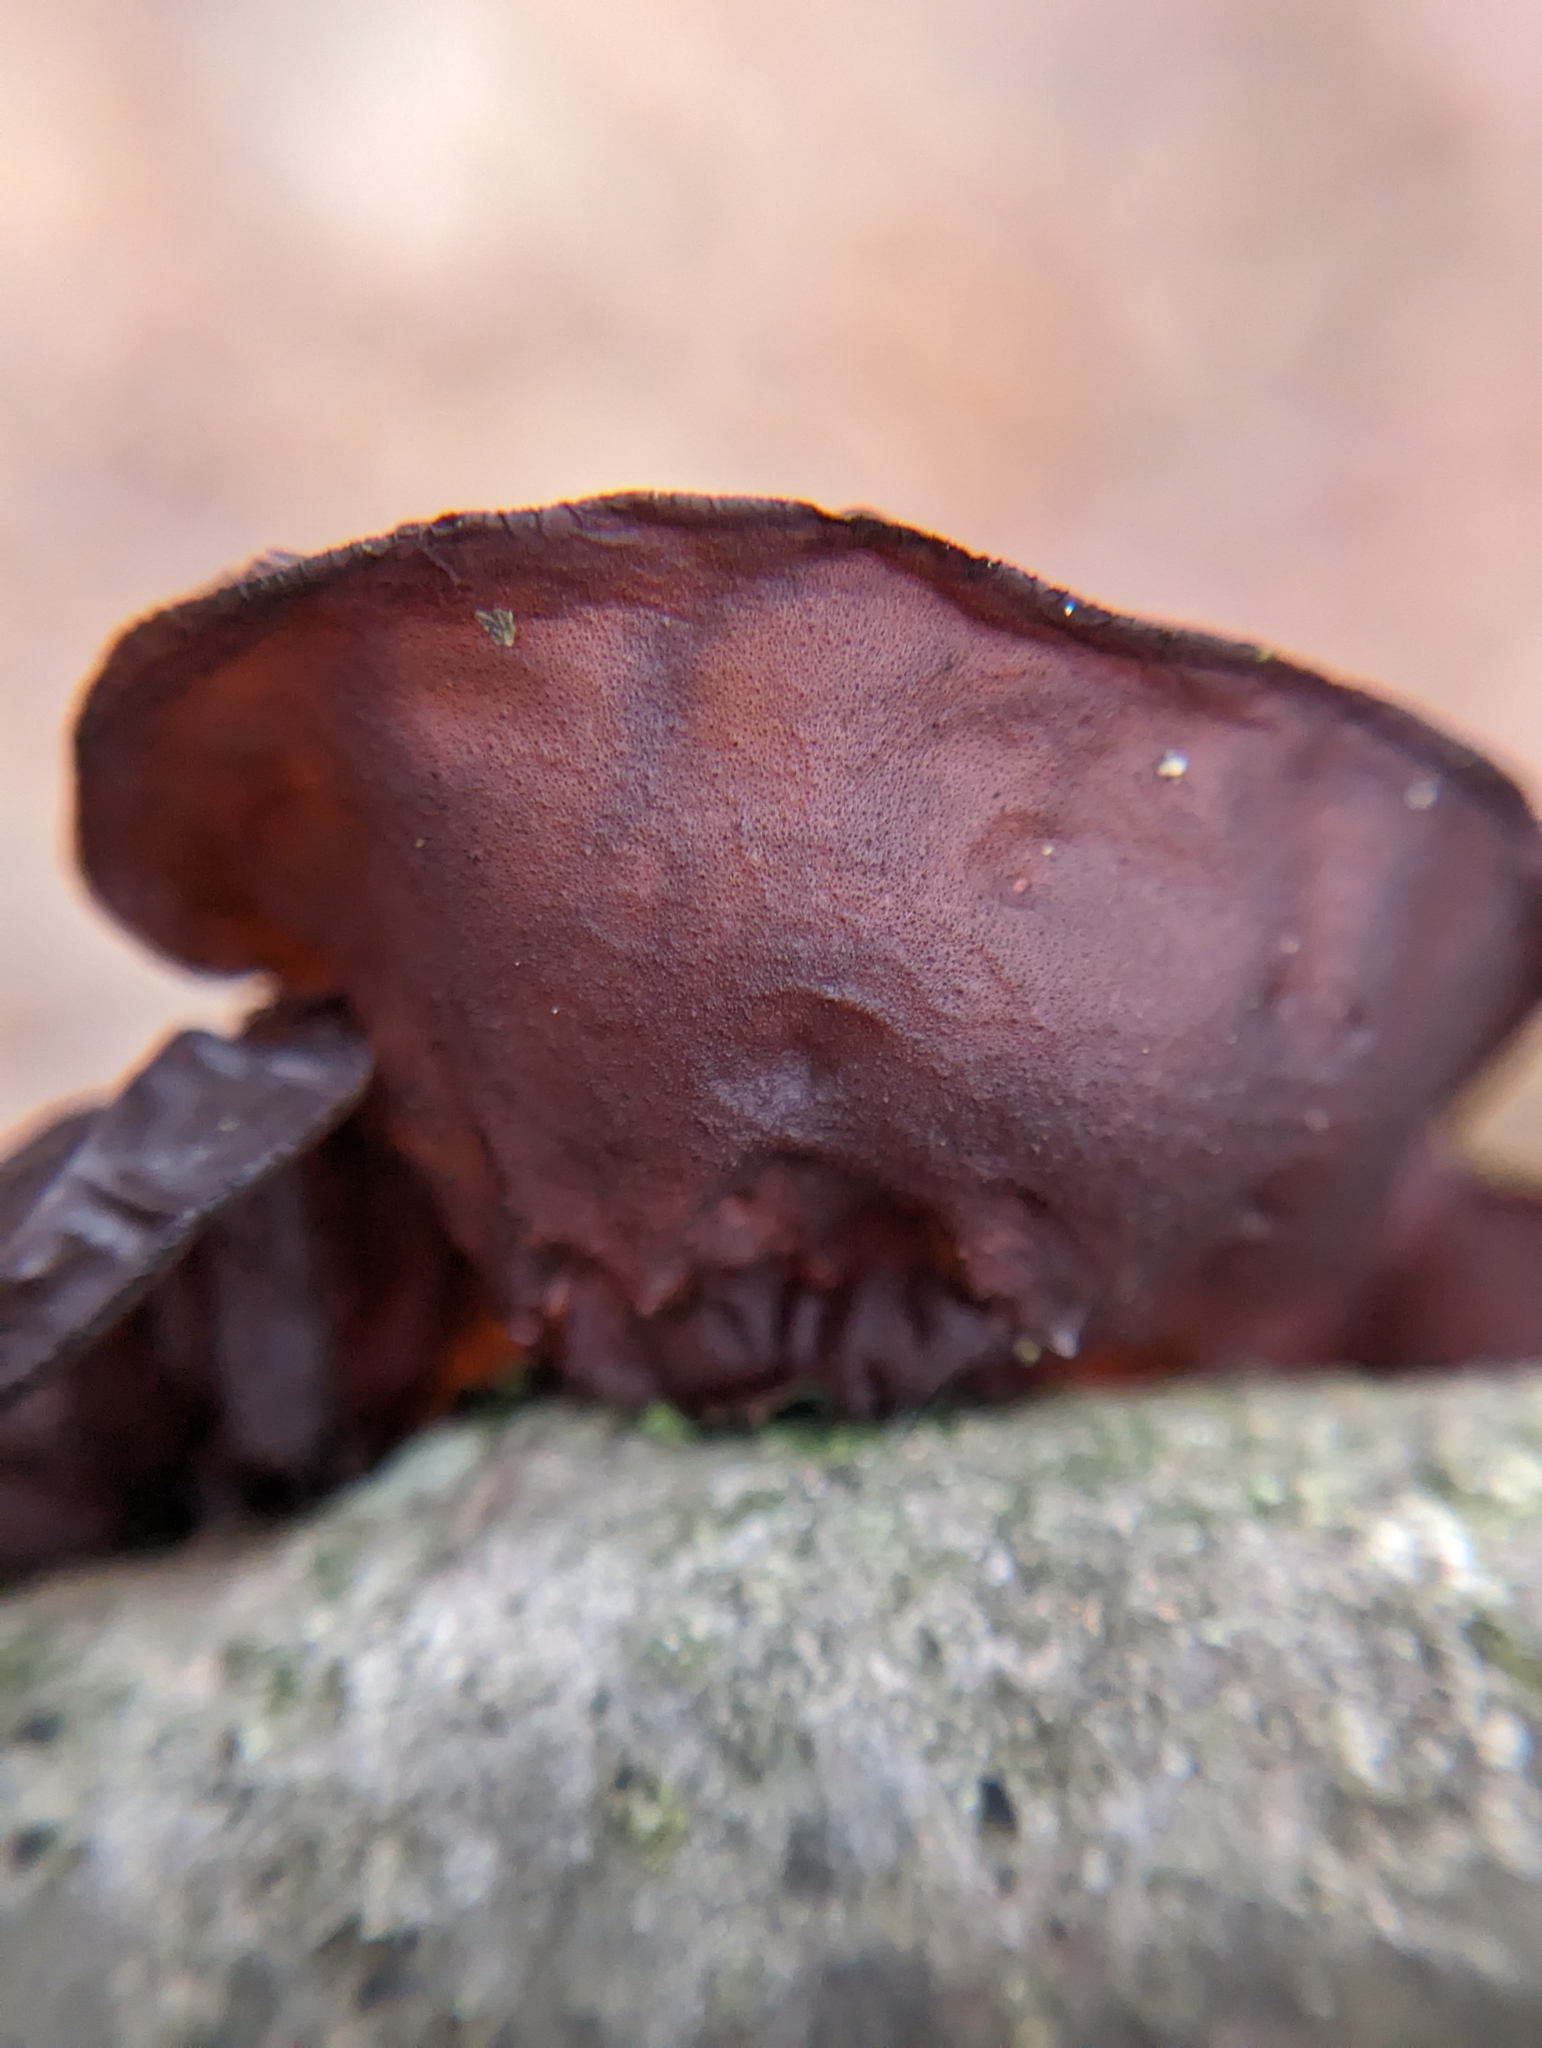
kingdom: Fungi
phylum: Basidiomycota
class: Agaricomycetes
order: Auriculariales
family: Auriculariaceae
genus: Exidia
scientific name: Exidia
